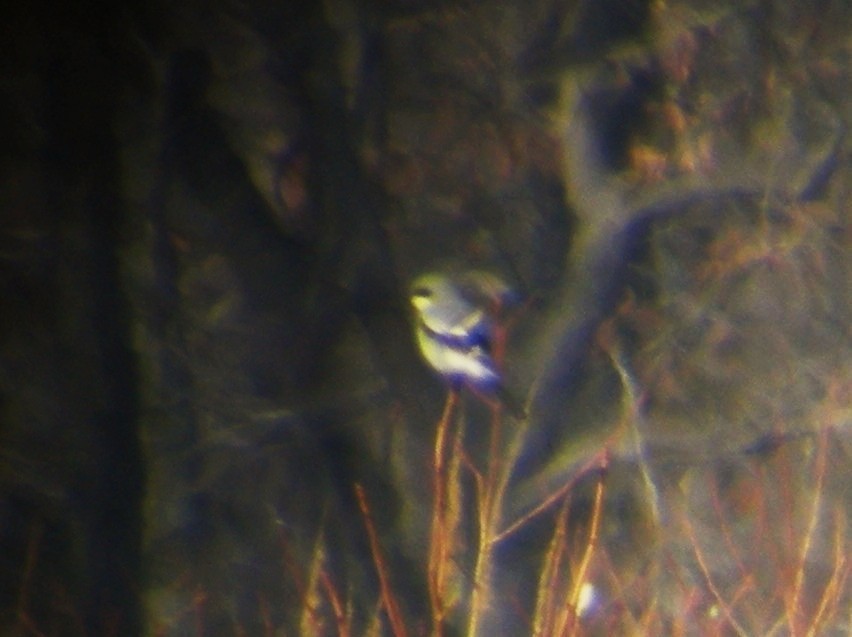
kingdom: Animalia
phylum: Chordata
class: Aves
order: Passeriformes
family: Laniidae
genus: Lanius
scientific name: Lanius ludovicianus
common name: Loggerhead shrike
